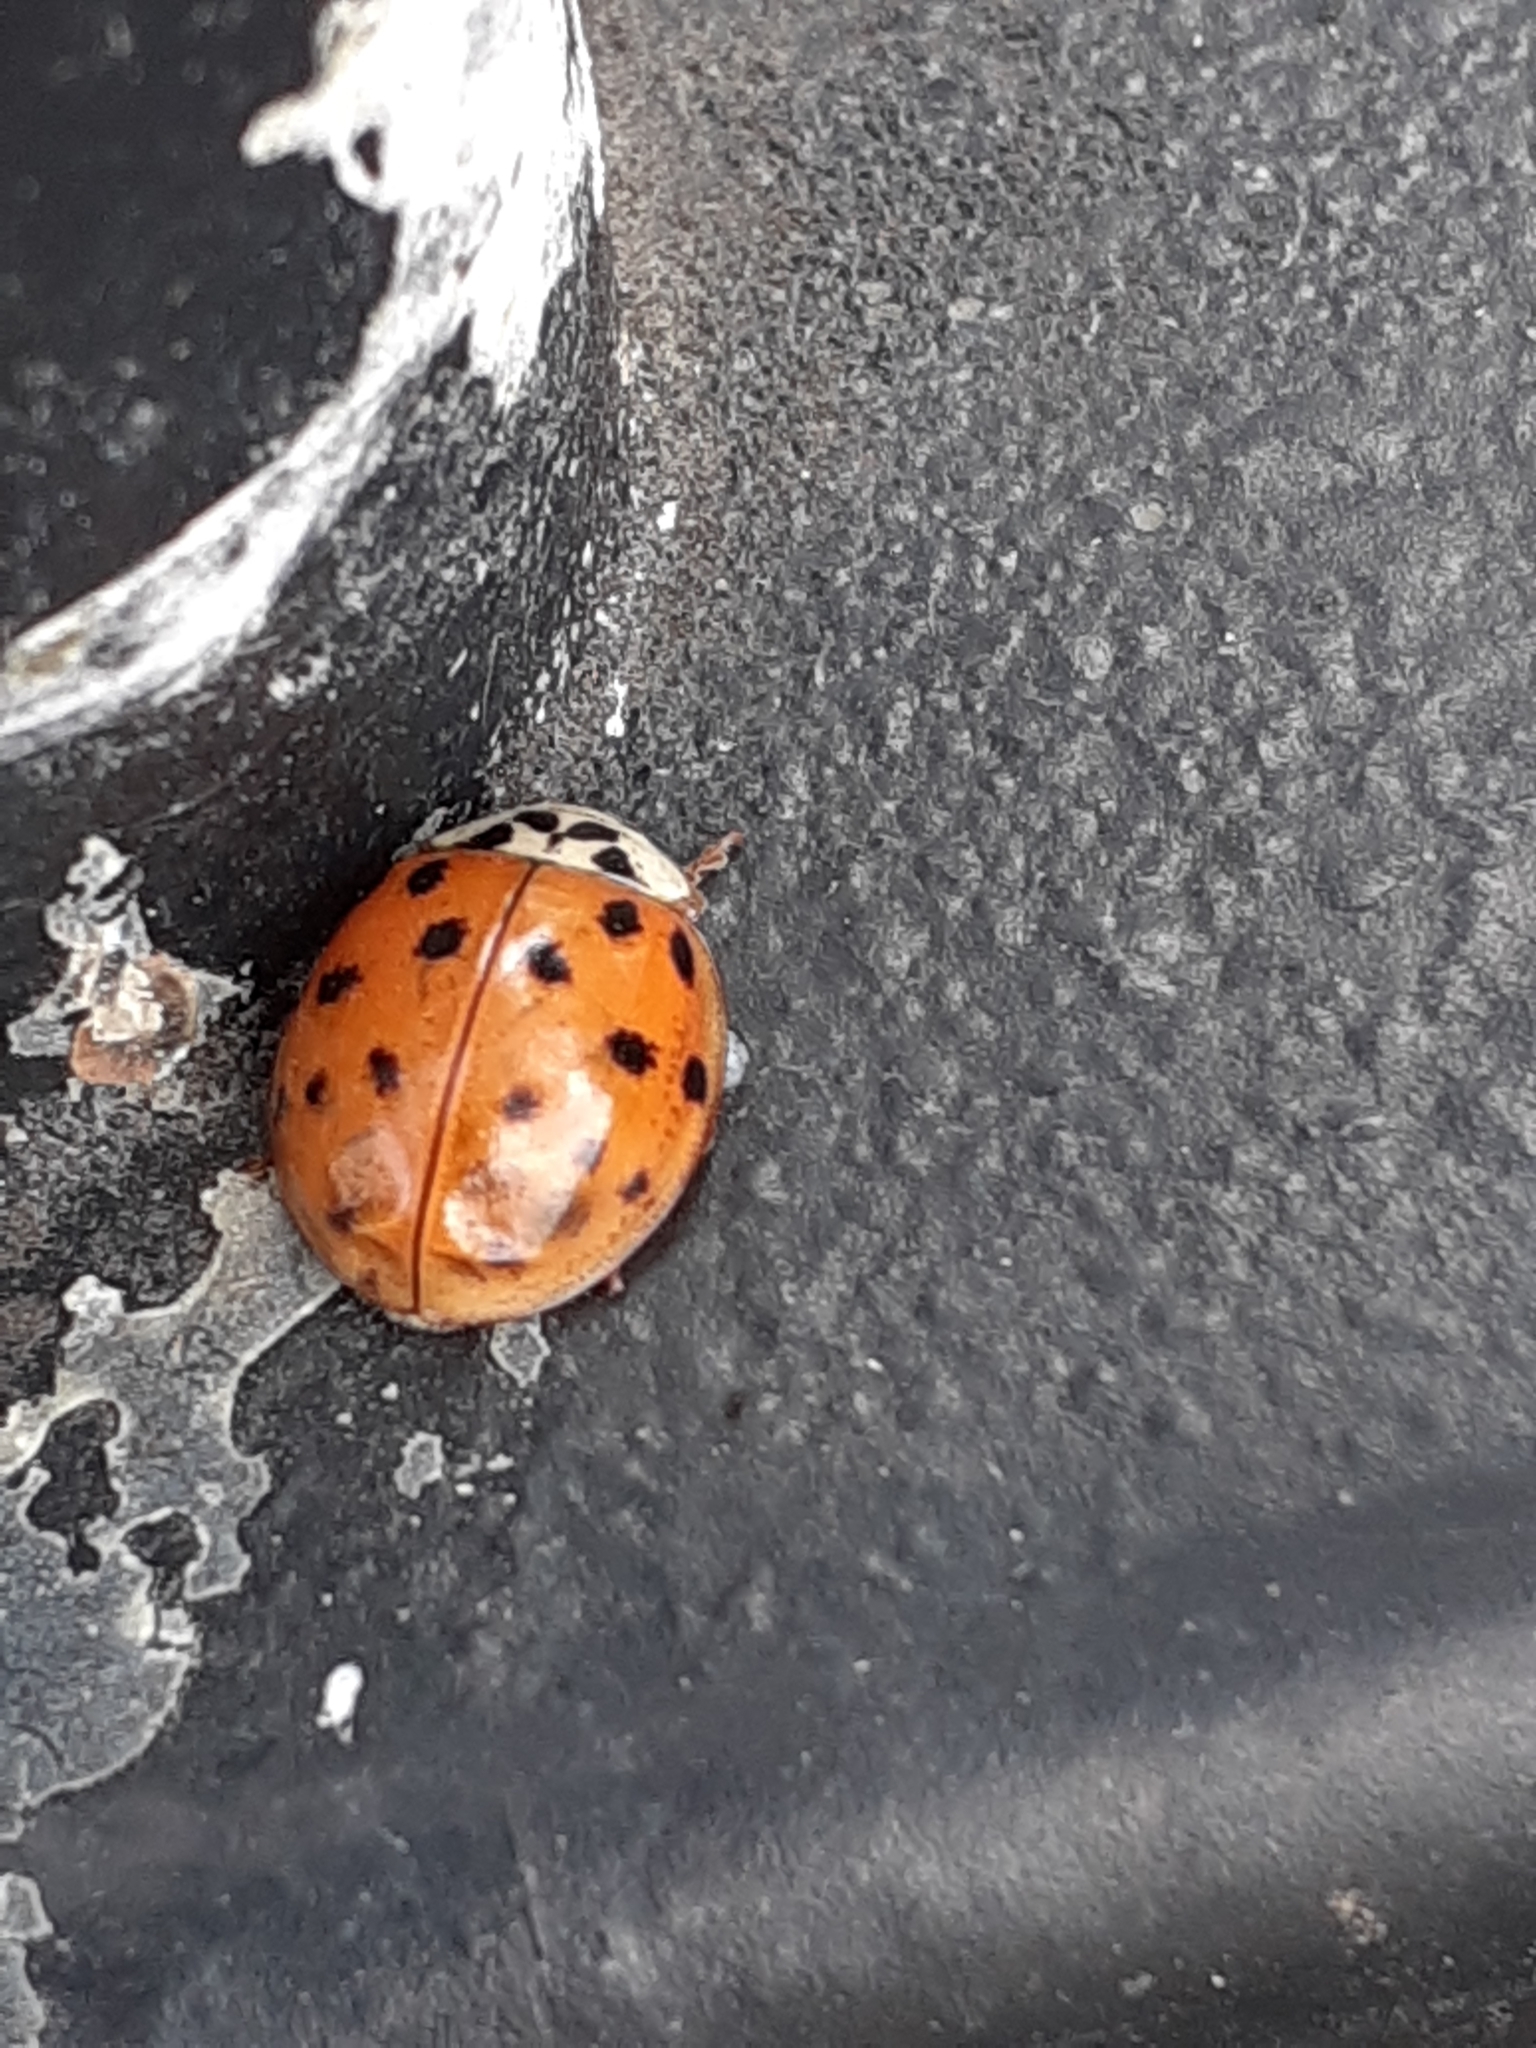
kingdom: Animalia
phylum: Arthropoda
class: Insecta
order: Coleoptera
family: Coccinellidae
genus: Harmonia
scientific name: Harmonia axyridis
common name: Harlequin ladybird
